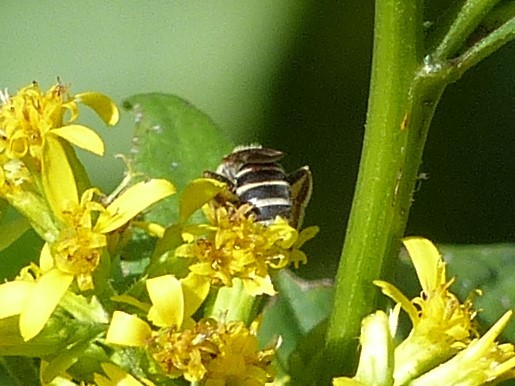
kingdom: Animalia
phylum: Arthropoda
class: Insecta
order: Hymenoptera
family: Halictidae
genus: Halictus
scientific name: Halictus ligatus
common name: Ligated furrow bee
